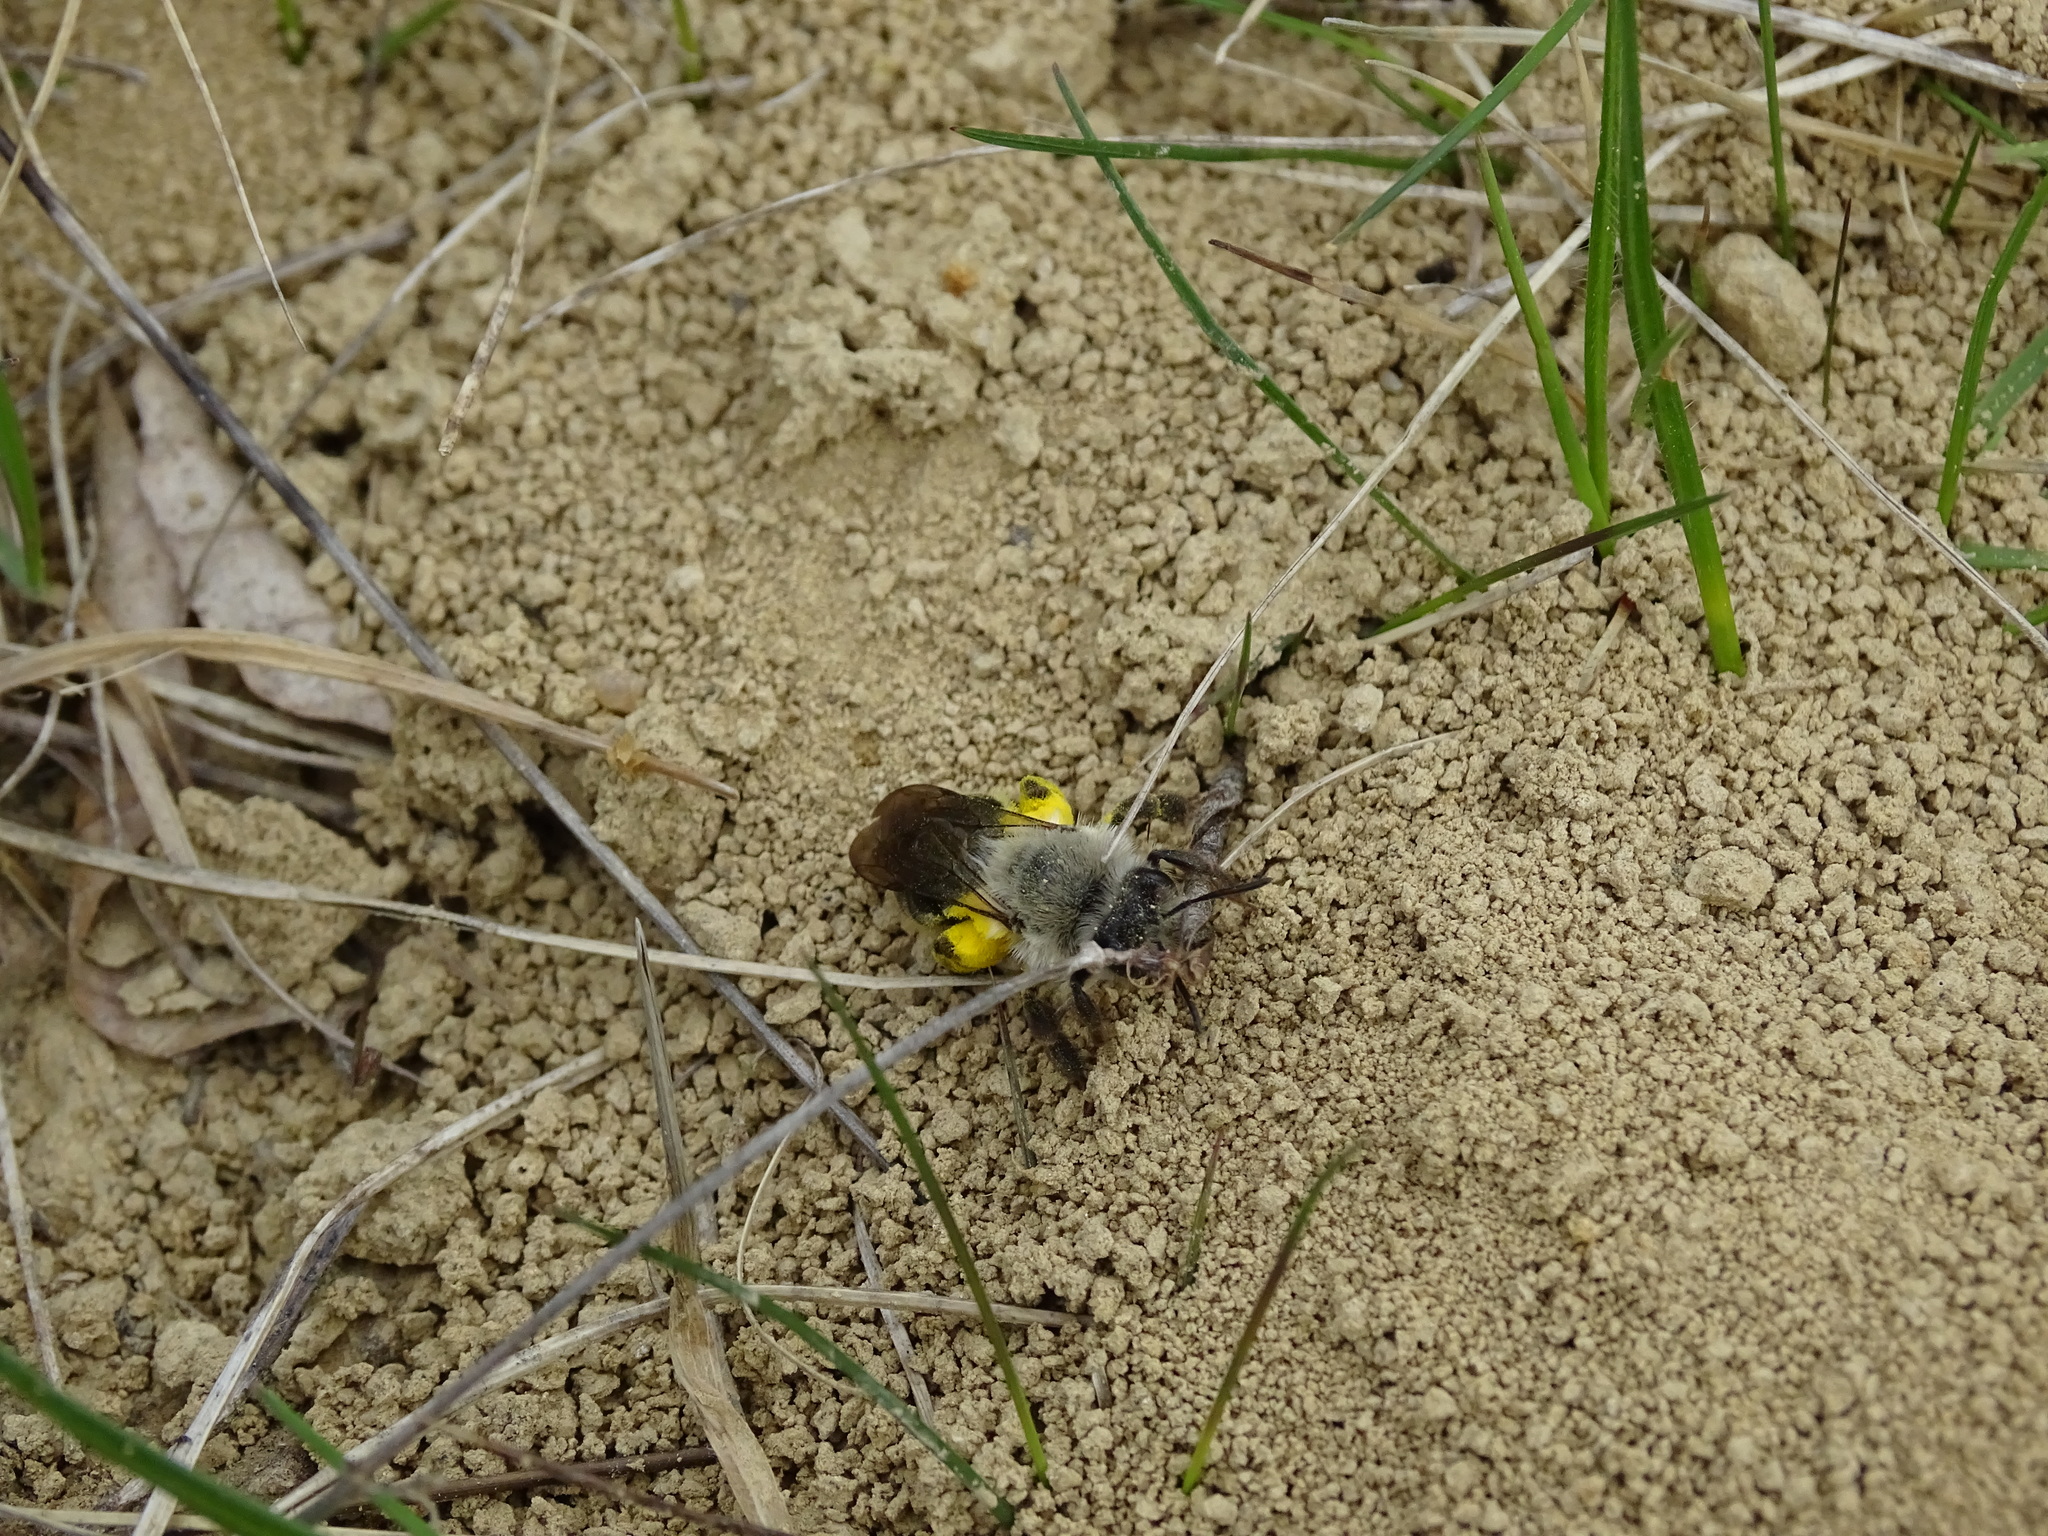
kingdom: Animalia
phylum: Arthropoda
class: Insecta
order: Hymenoptera
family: Andrenidae
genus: Andrena
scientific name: Andrena vaga
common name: Grey-backed mining bee
